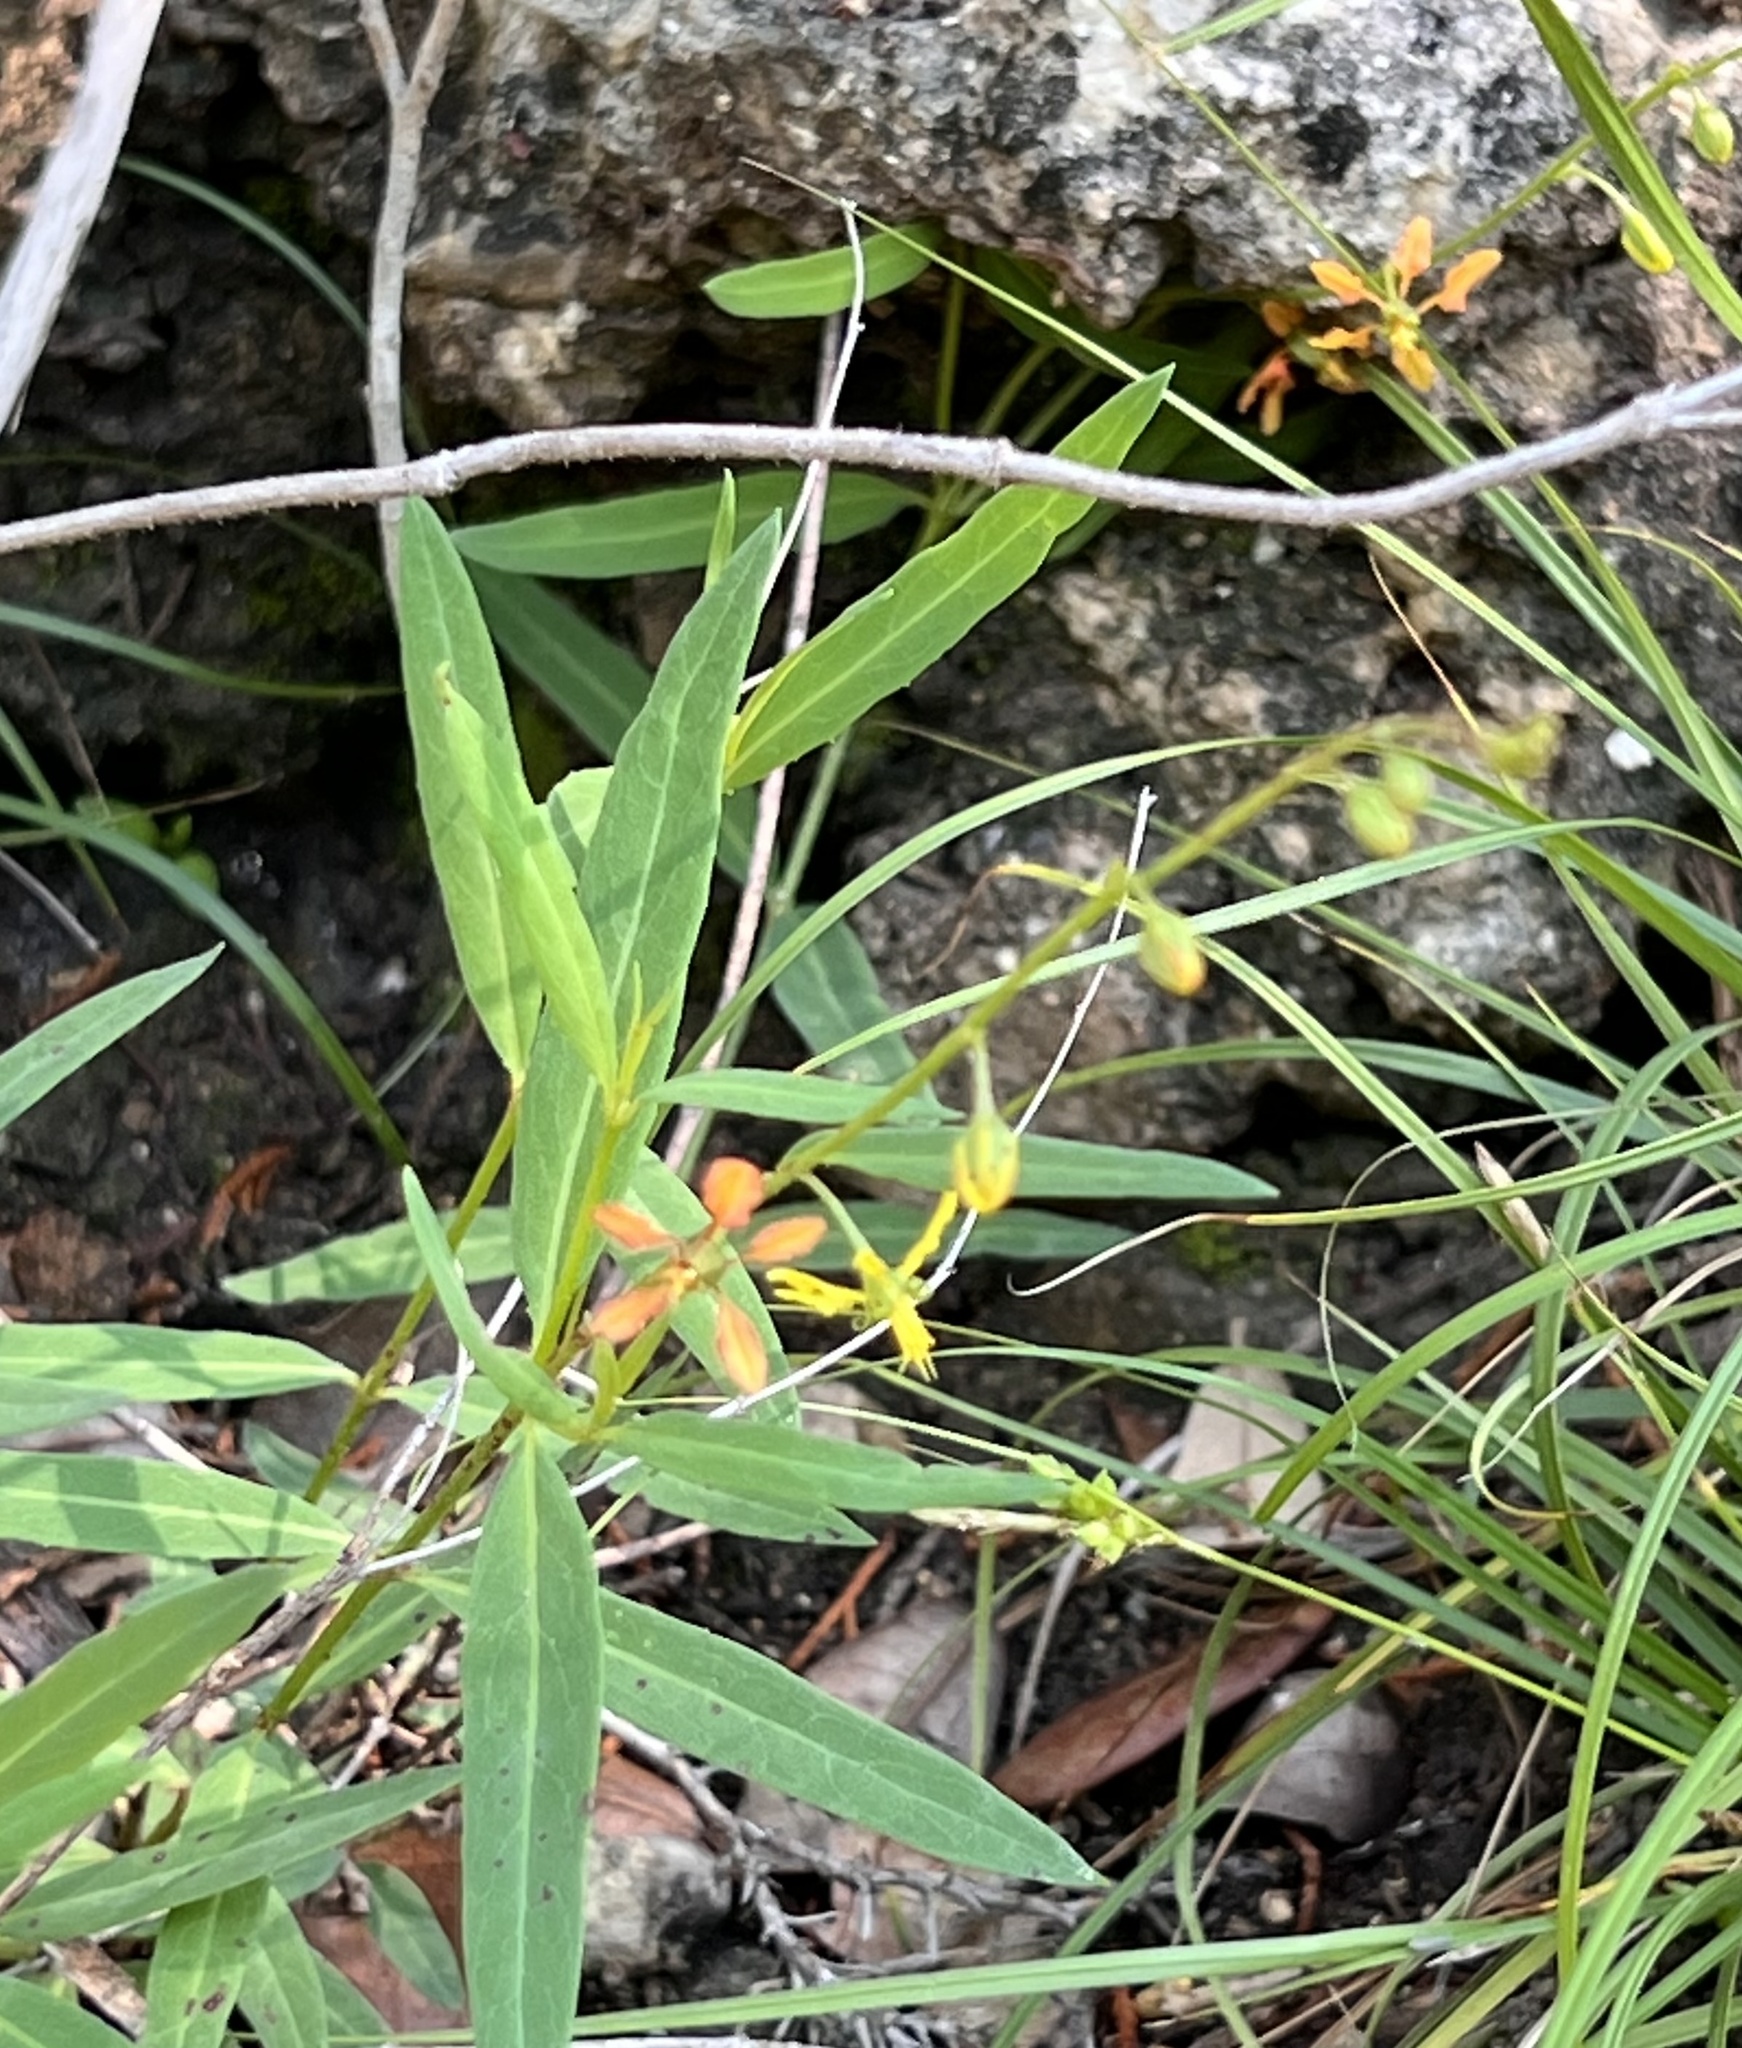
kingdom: Plantae
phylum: Tracheophyta
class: Magnoliopsida
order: Malpighiales
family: Malpighiaceae
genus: Galphimia
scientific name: Galphimia angustifolia
